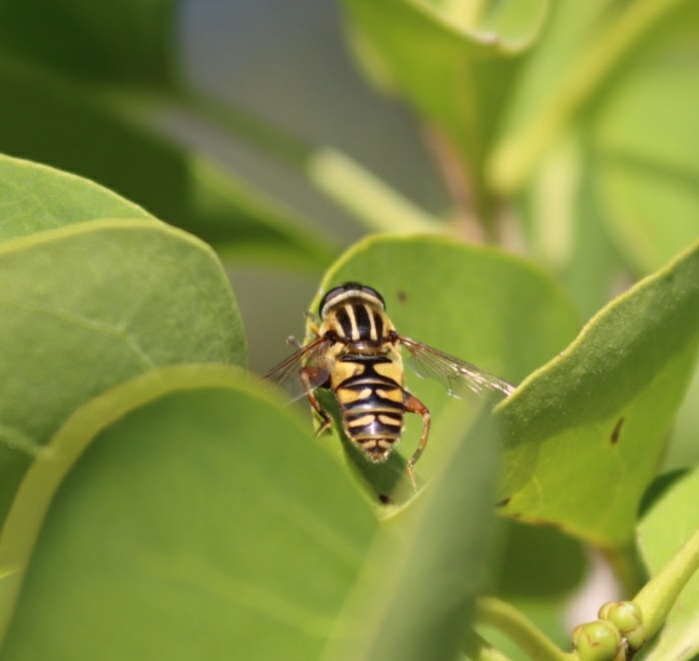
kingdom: Animalia
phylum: Arthropoda
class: Insecta
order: Diptera
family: Syrphidae
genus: Helophilus
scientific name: Helophilus pendulus
